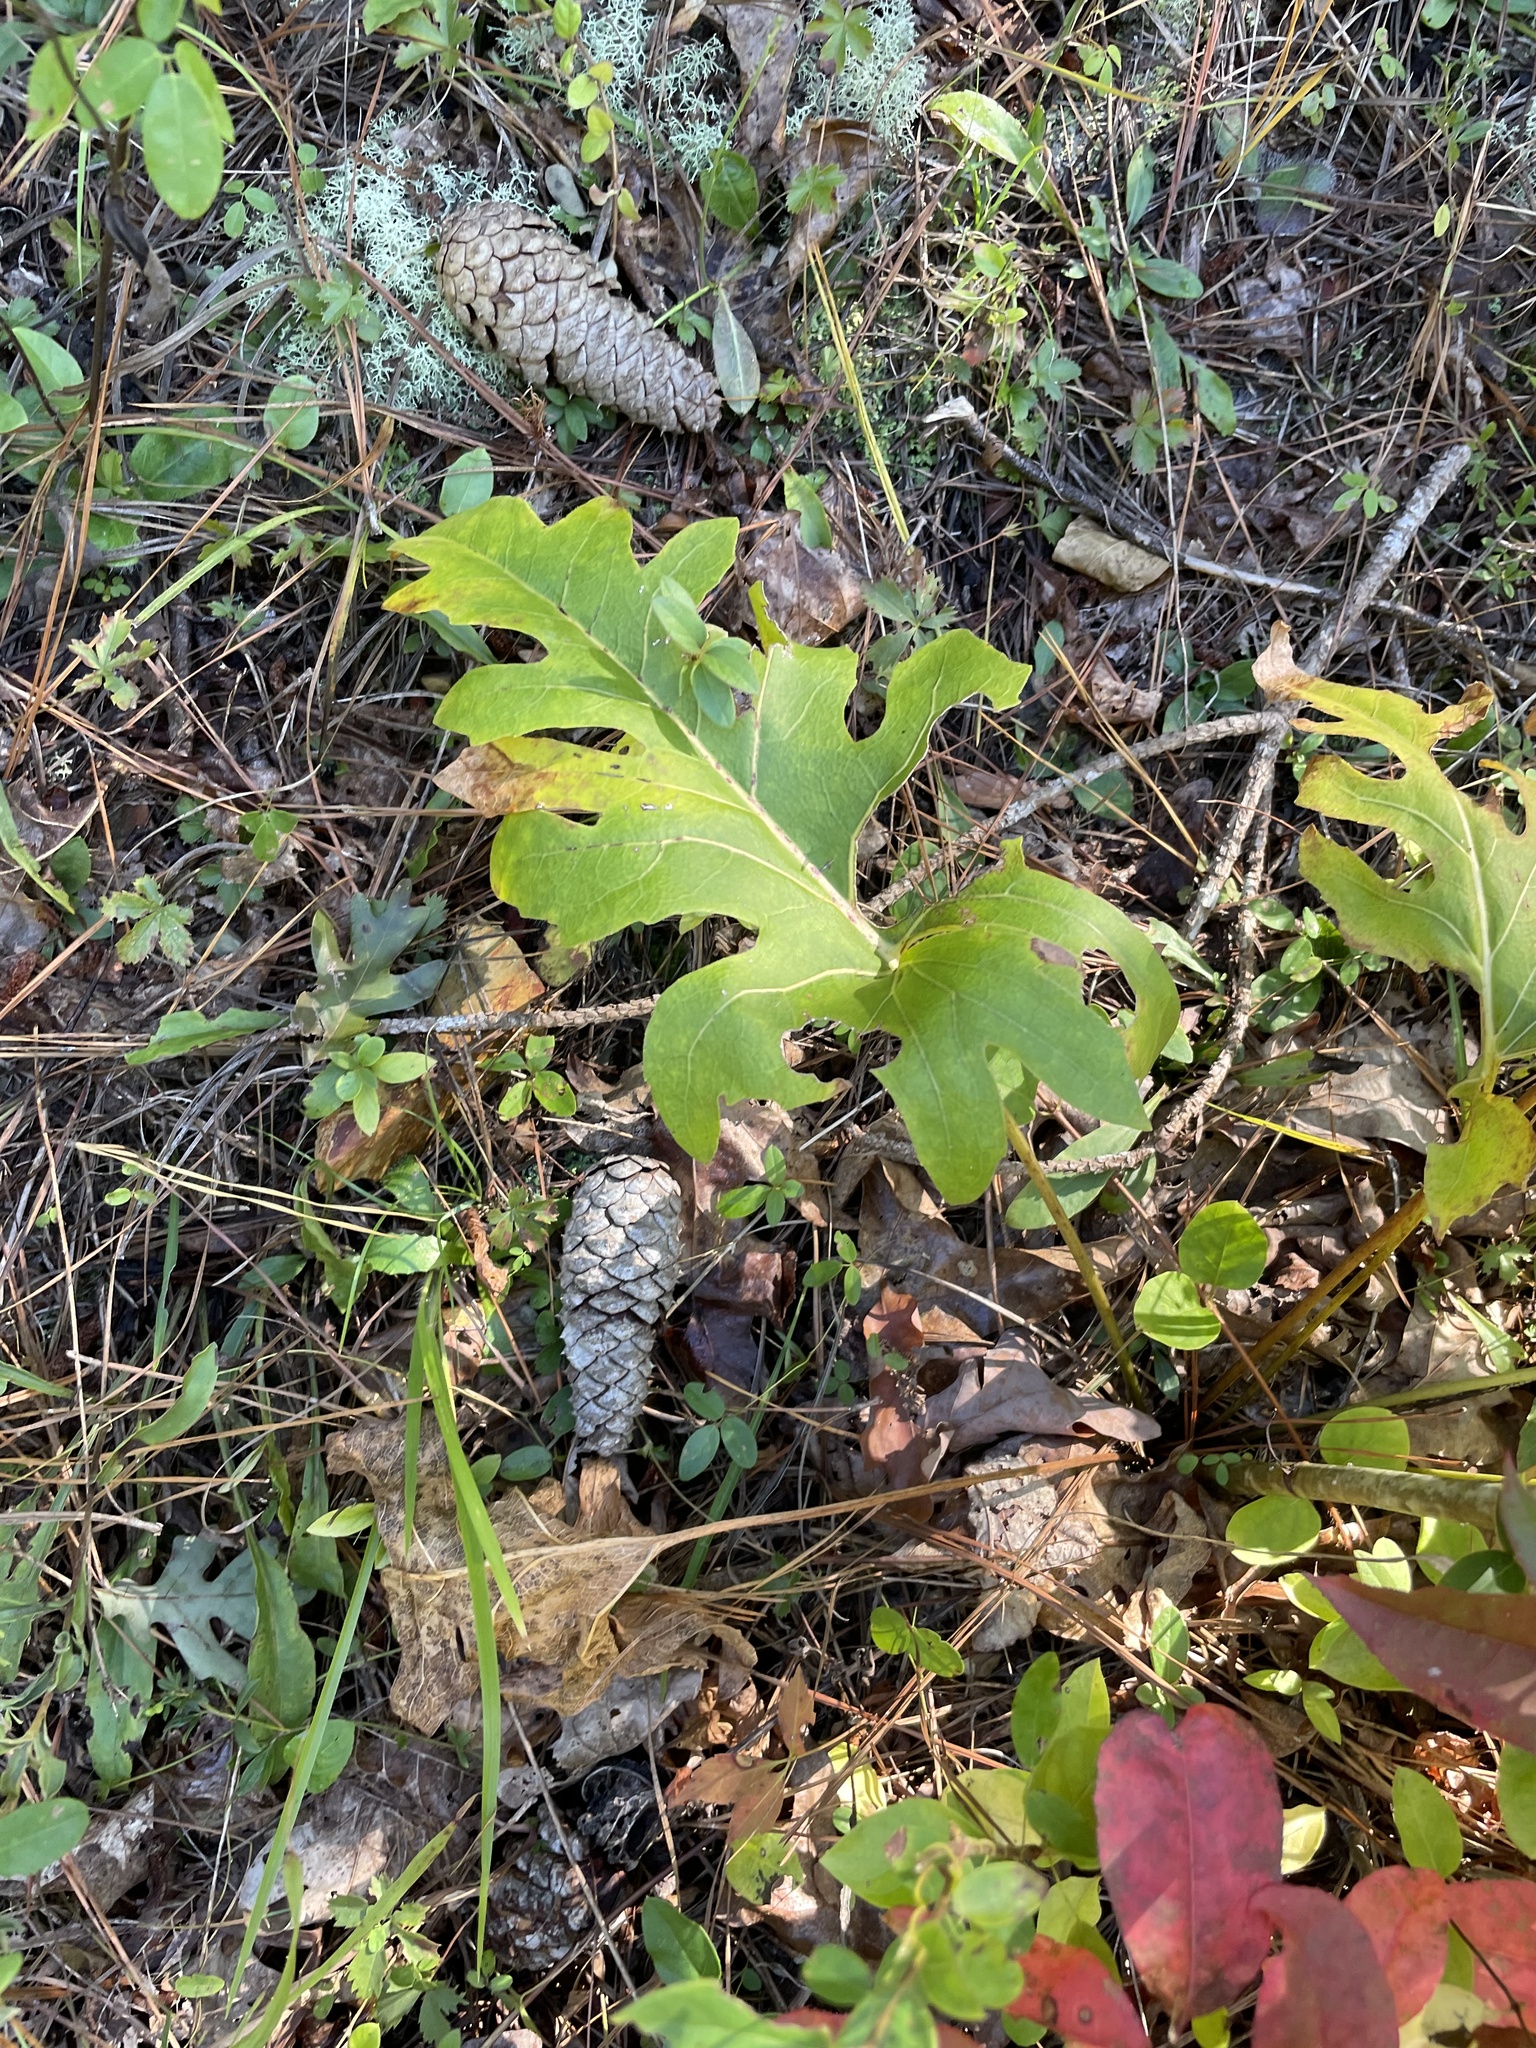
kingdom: Plantae
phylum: Tracheophyta
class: Magnoliopsida
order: Asterales
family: Asteraceae
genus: Silphium
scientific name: Silphium compositum
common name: Lesser basal-leaf rosinweed
